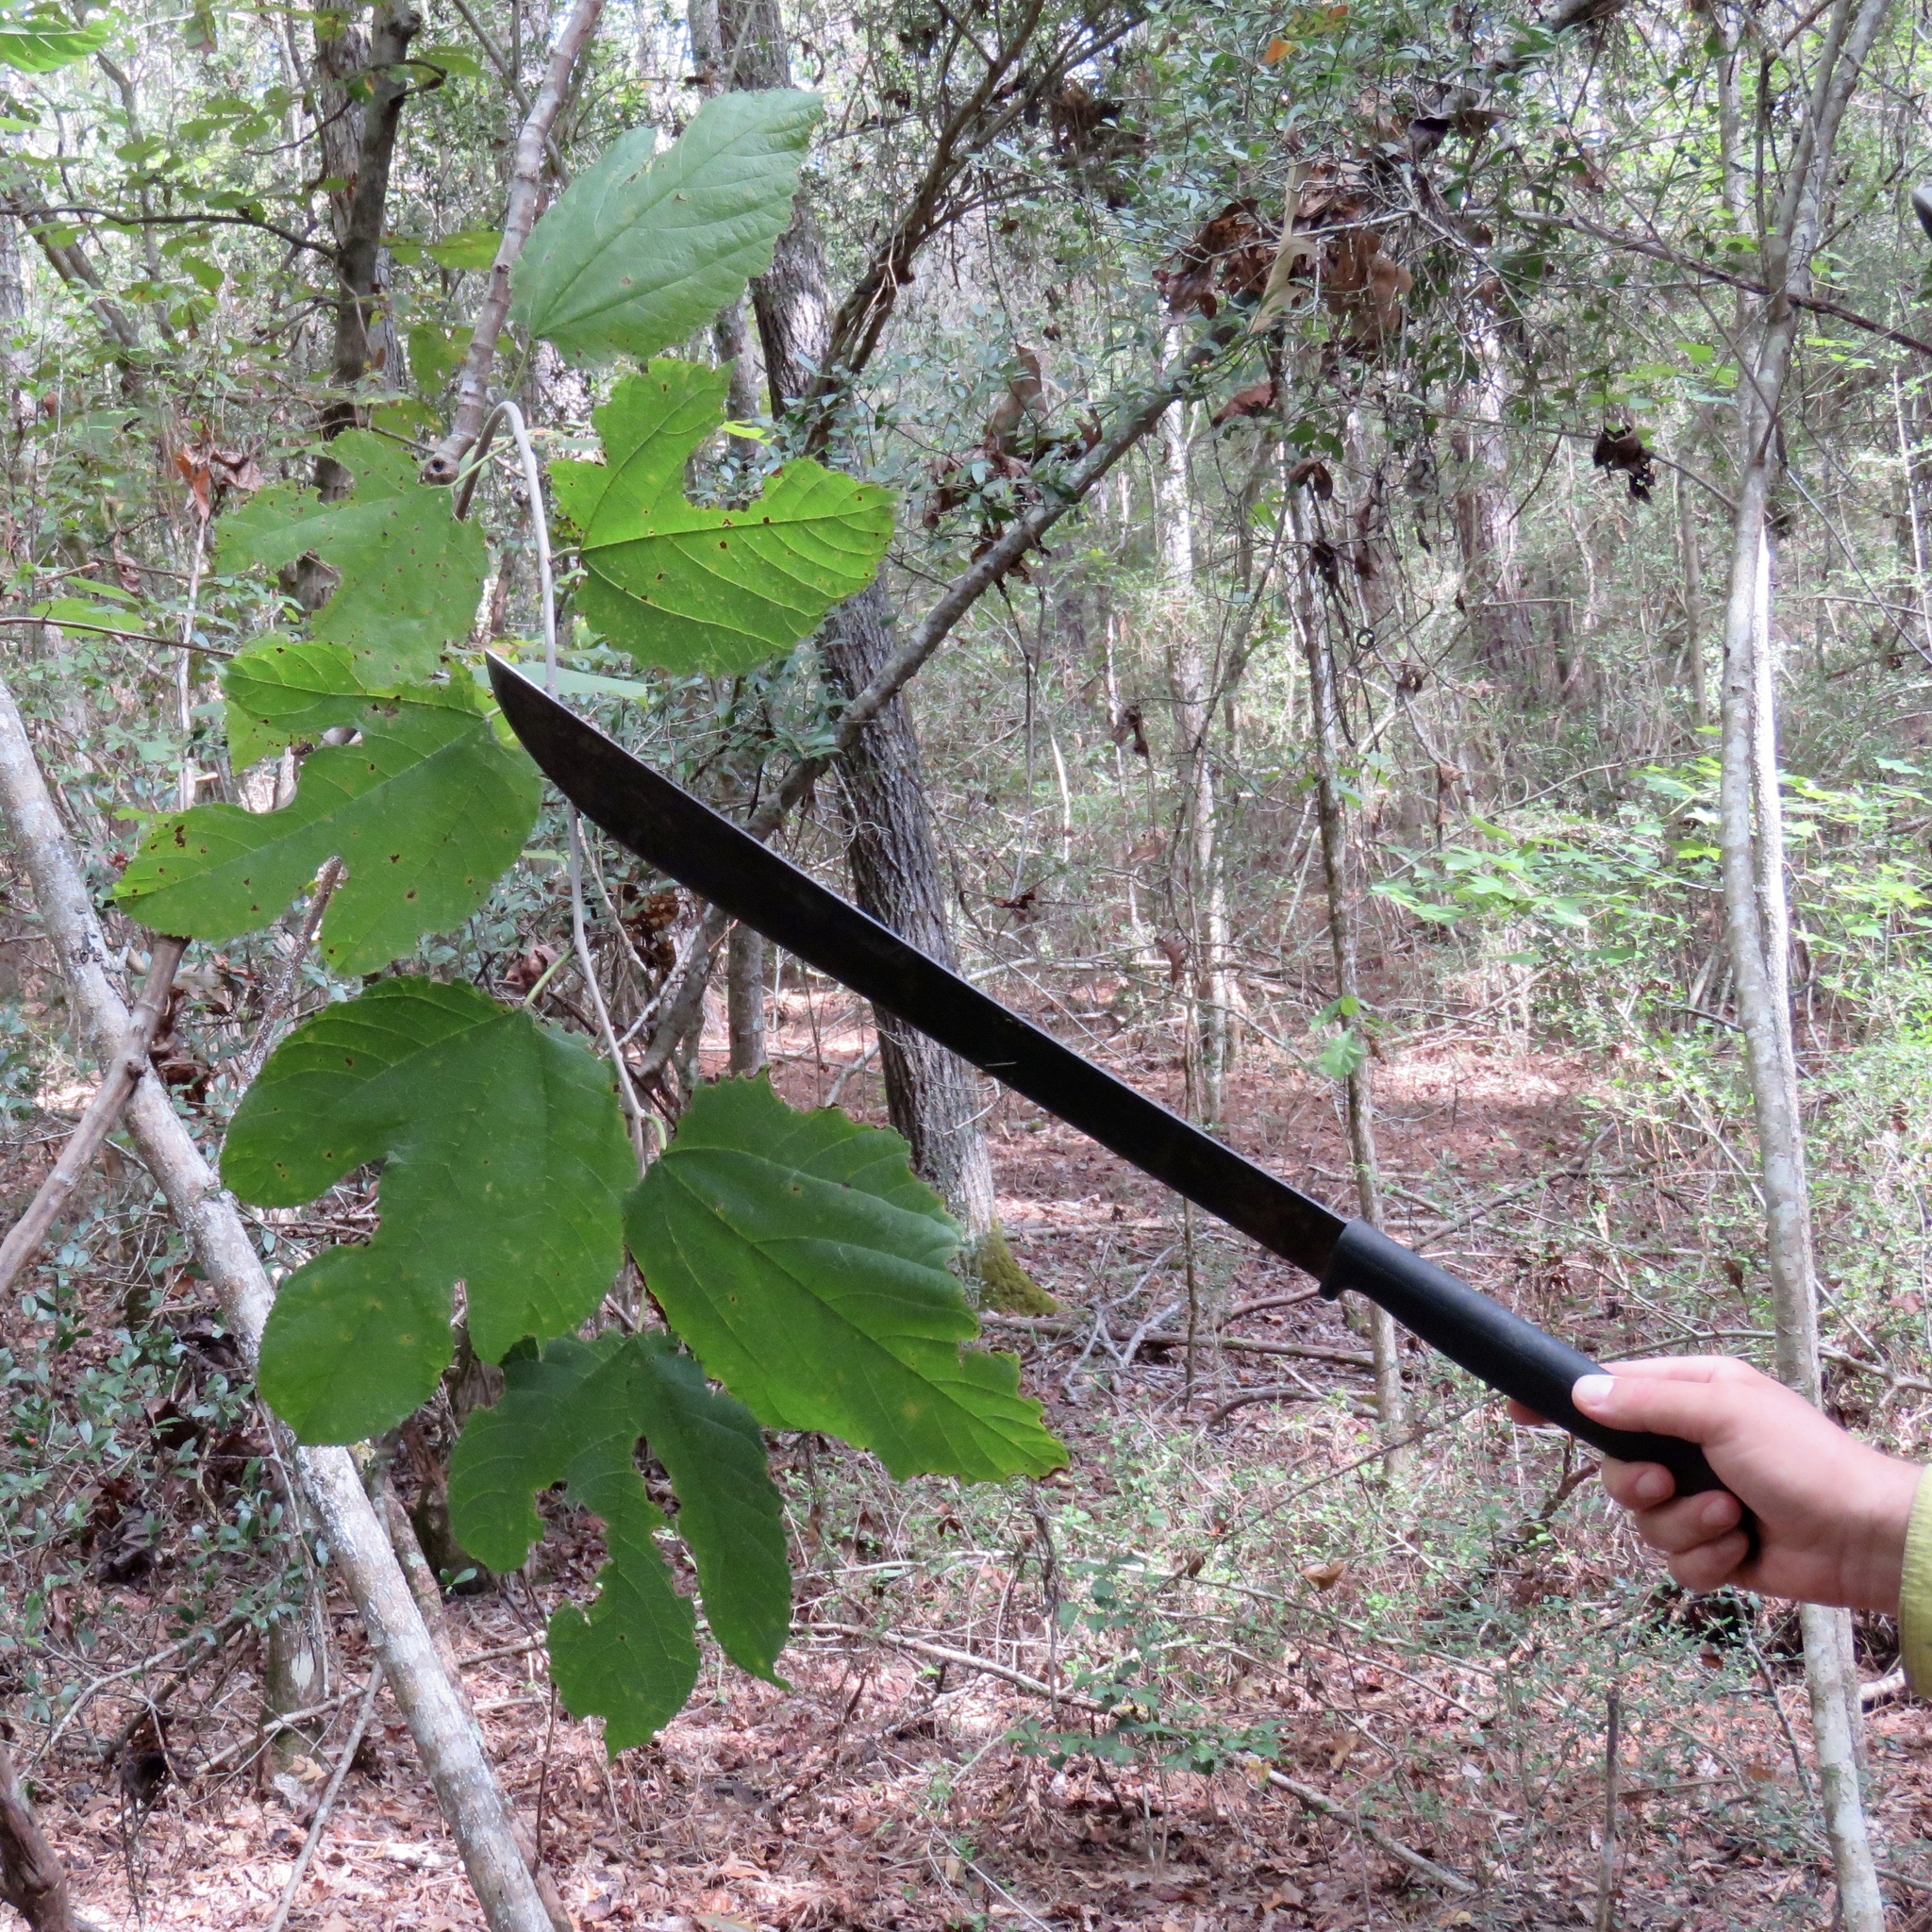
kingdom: Plantae
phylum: Tracheophyta
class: Magnoliopsida
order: Rosales
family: Moraceae
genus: Morus
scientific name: Morus rubra
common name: Red mulberry
